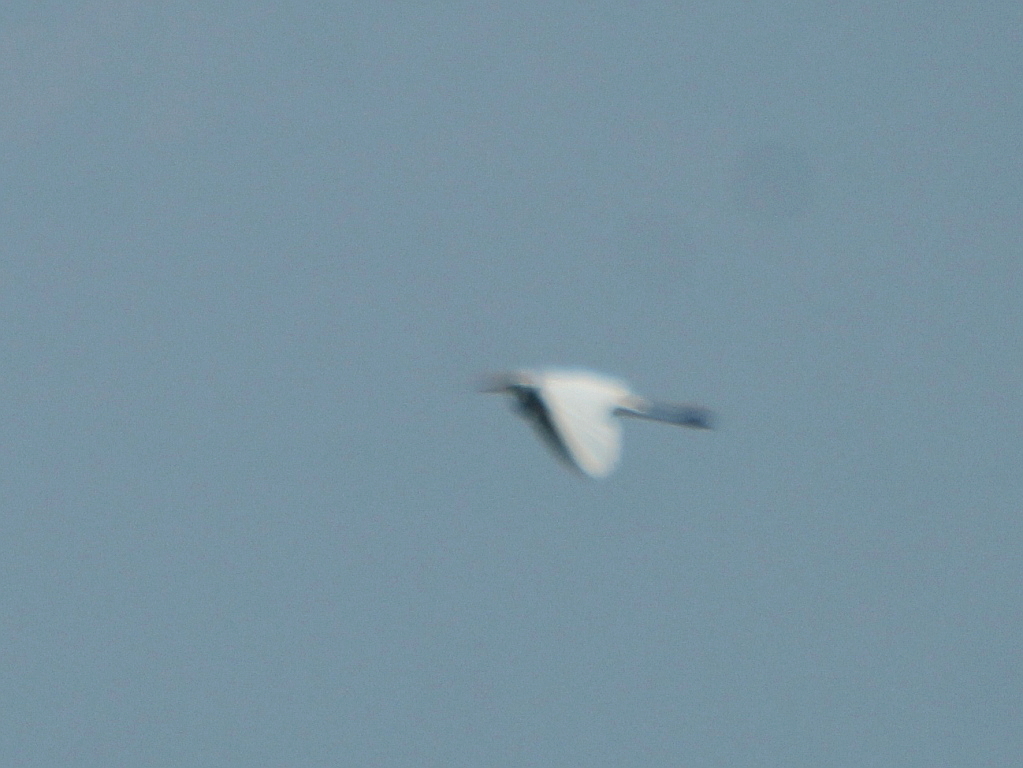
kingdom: Animalia
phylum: Chordata
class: Aves
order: Pelecaniformes
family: Ardeidae
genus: Ardea
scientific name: Ardea alba
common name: Great egret
